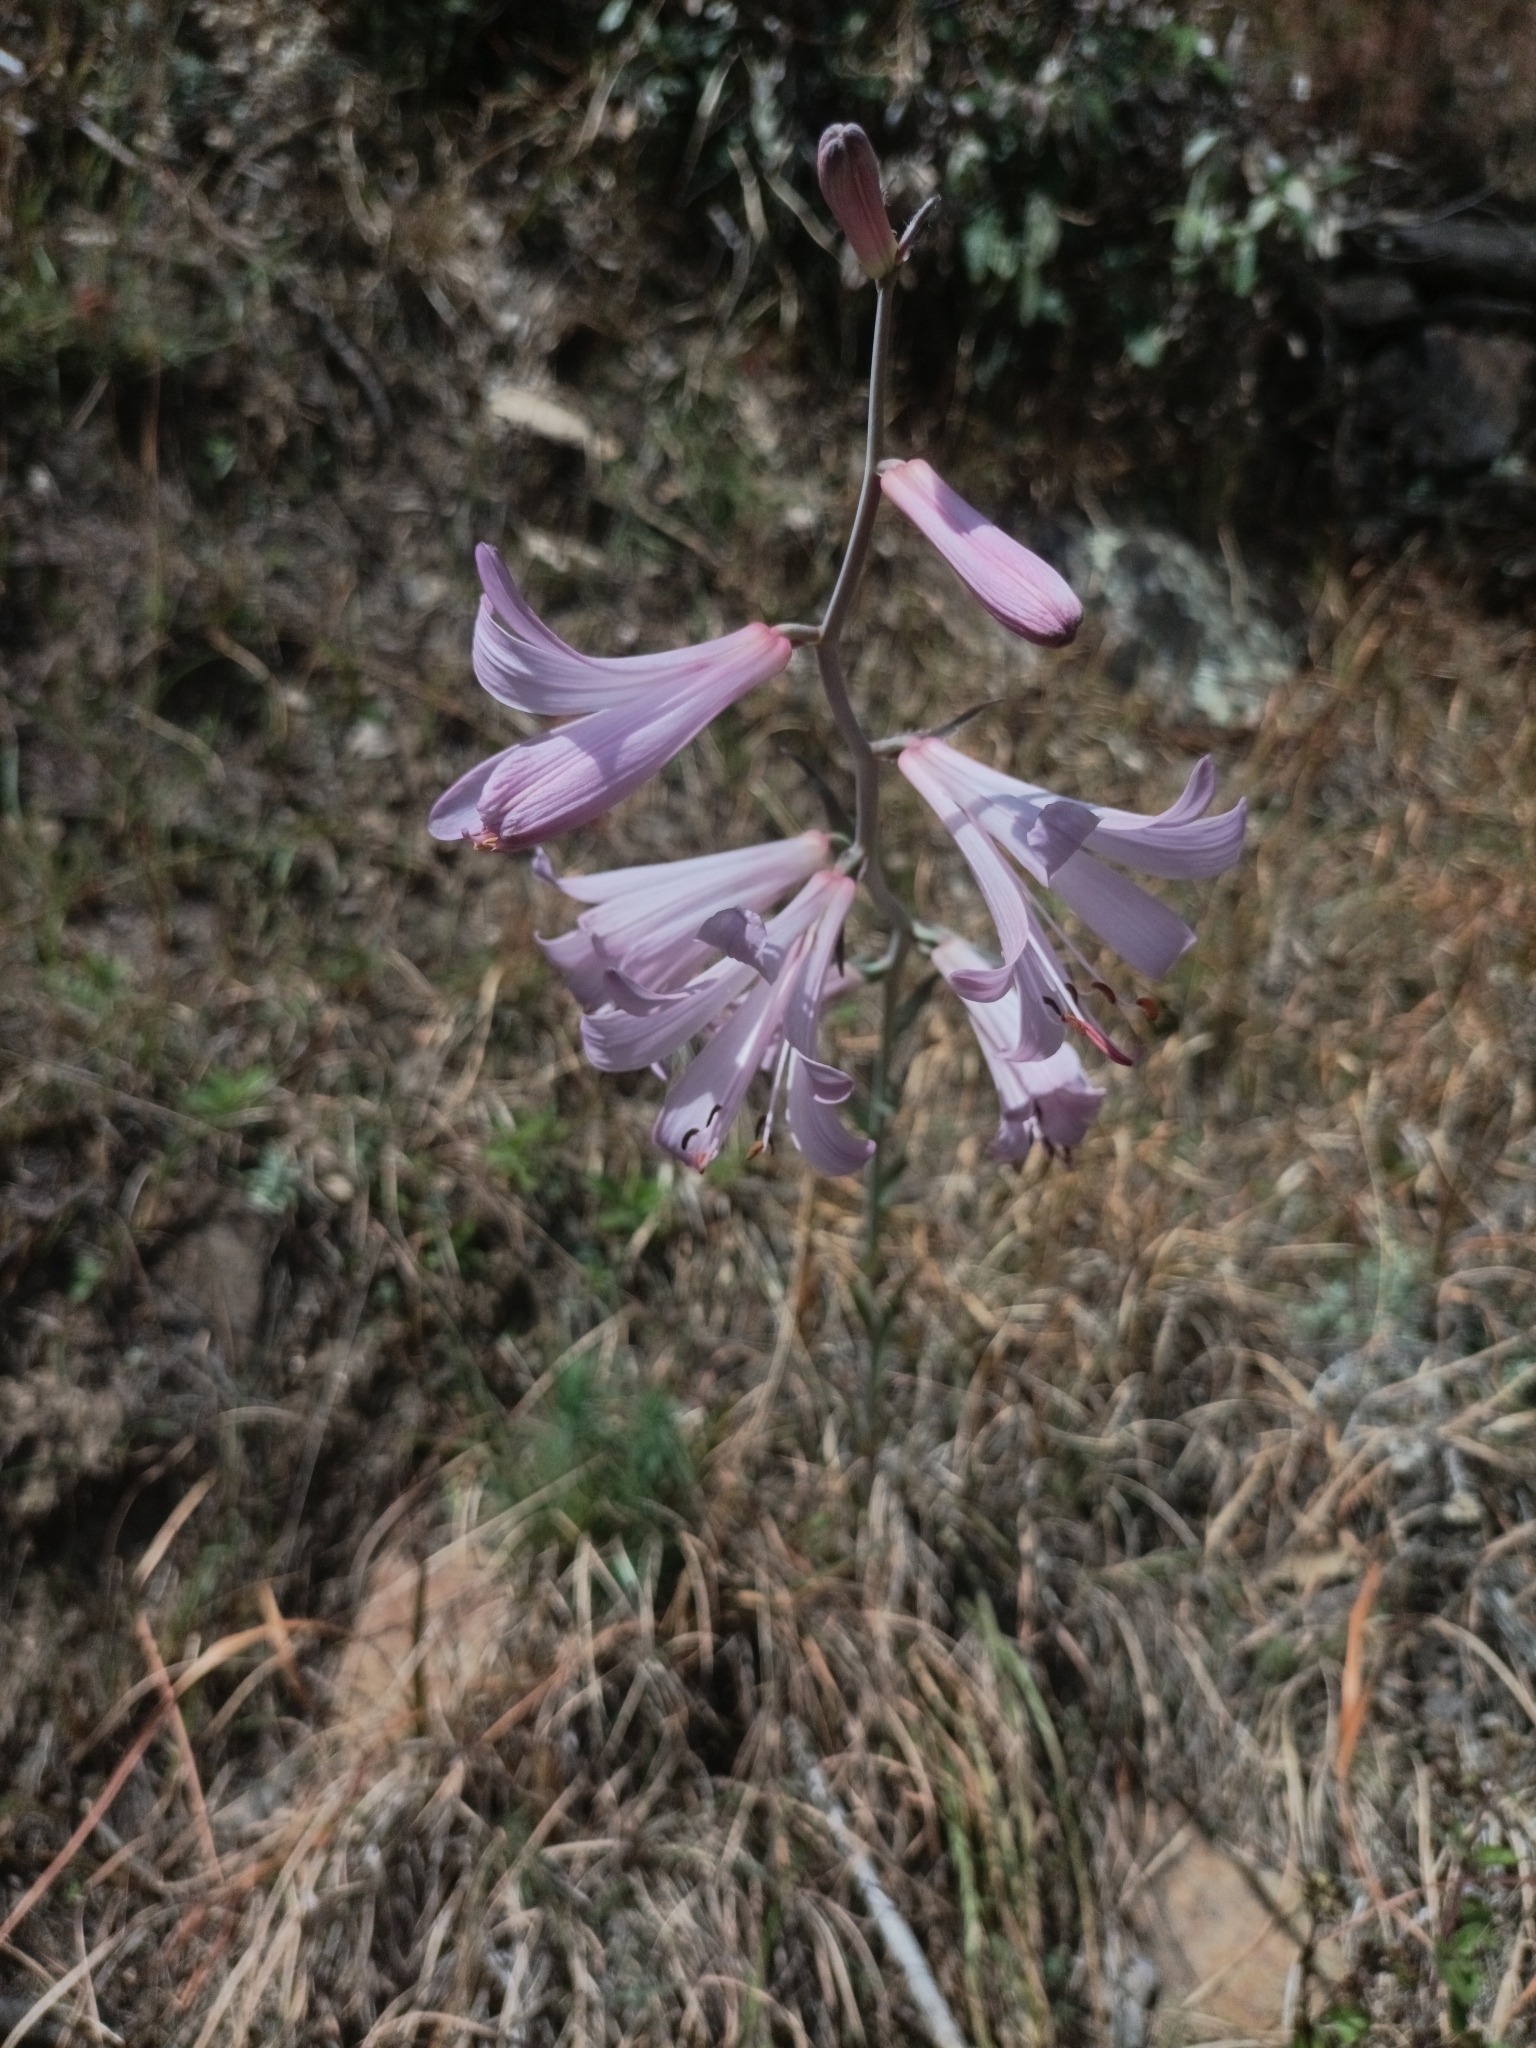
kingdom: Plantae
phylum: Tracheophyta
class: Liliopsida
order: Liliales
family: Liliaceae
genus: Notholirion
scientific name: Notholirion thomsonianum
